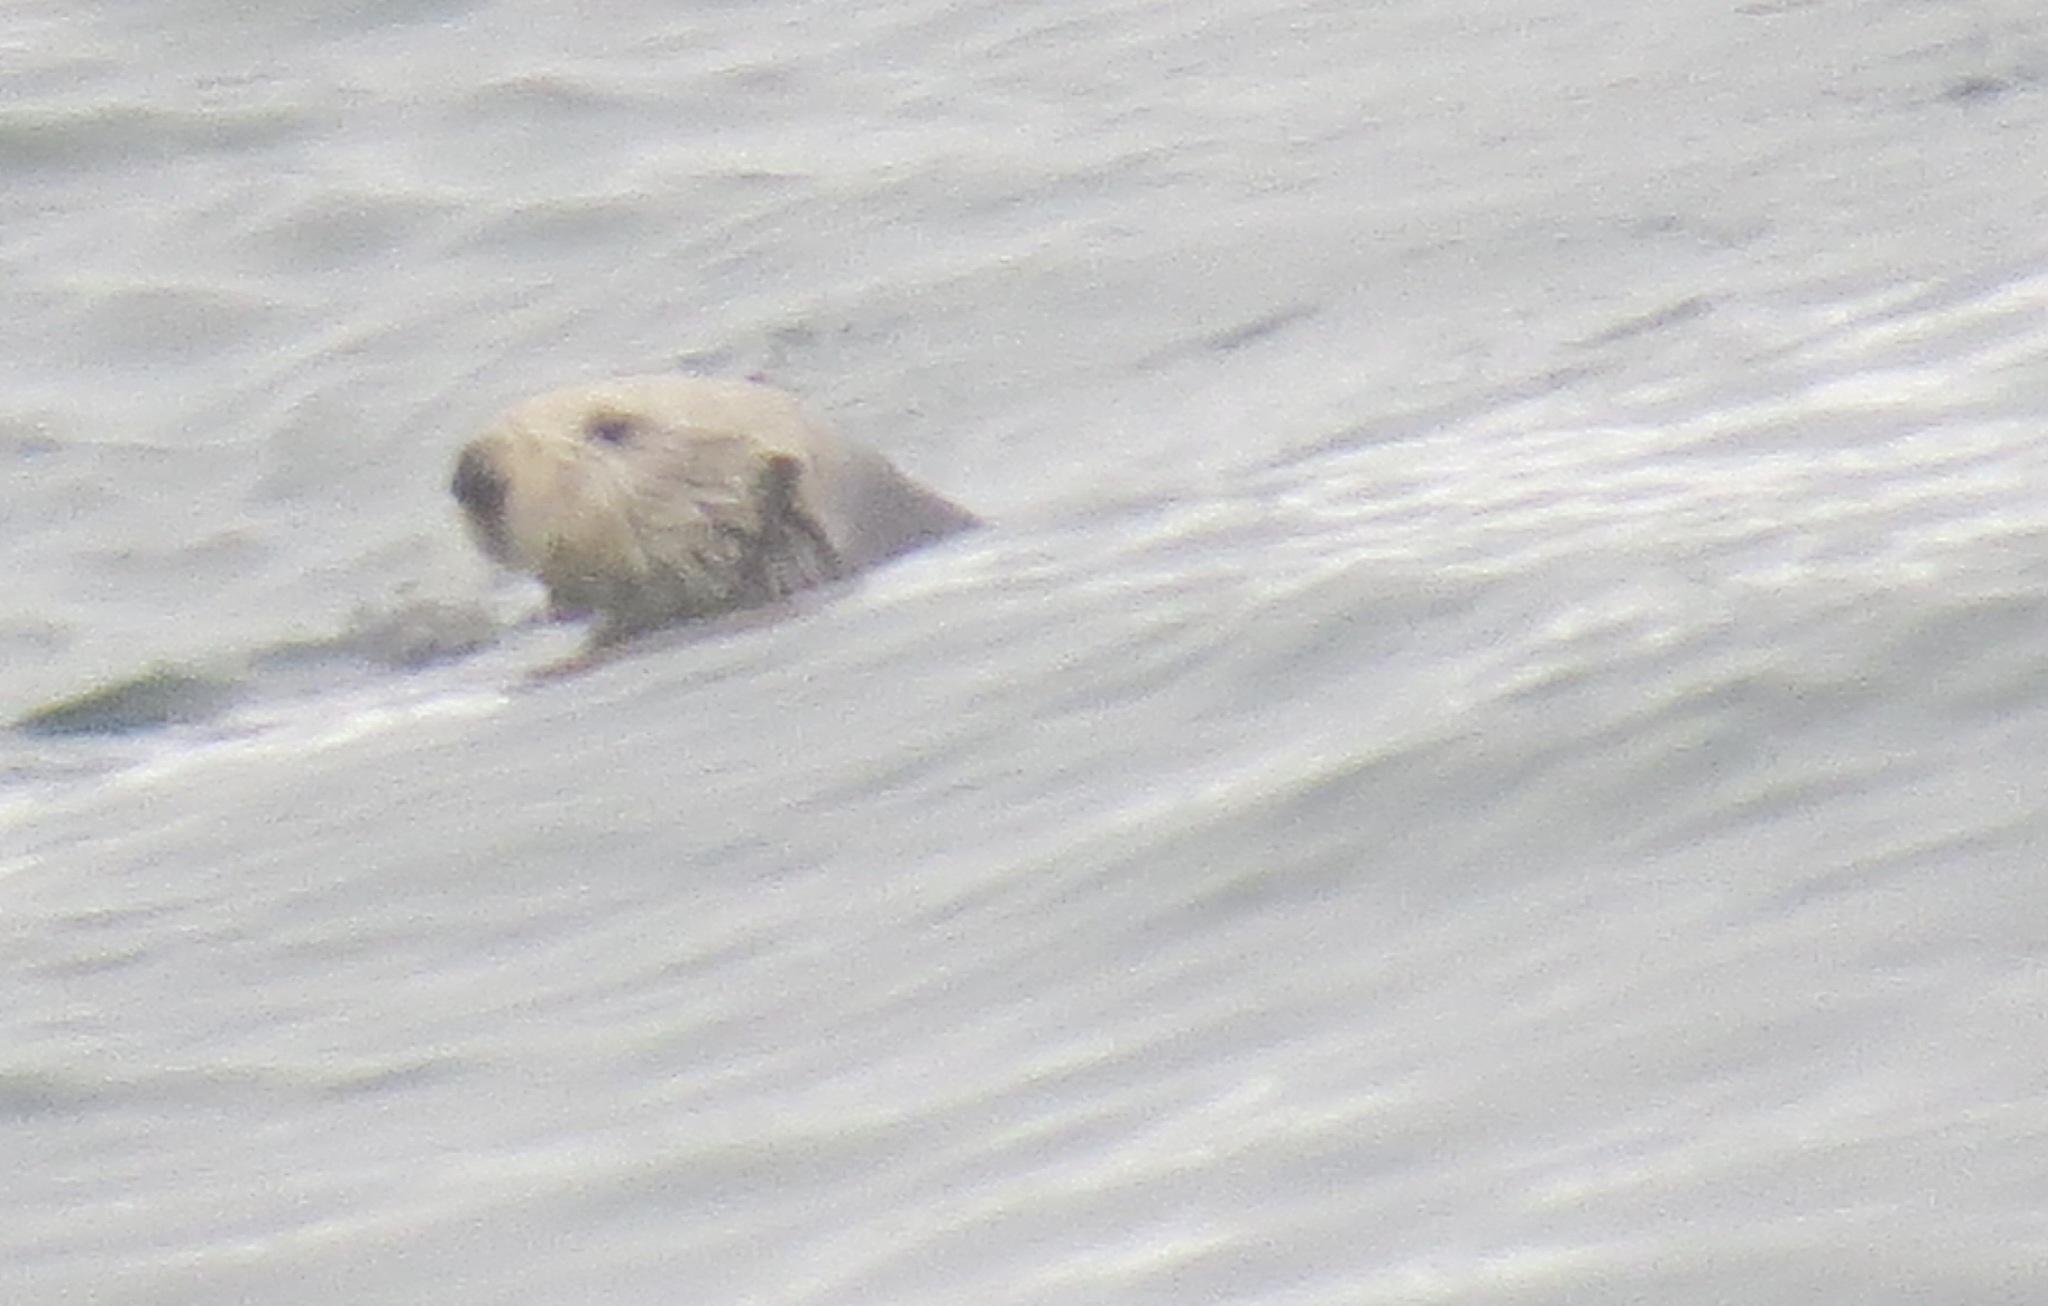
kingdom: Animalia
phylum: Chordata
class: Mammalia
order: Carnivora
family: Mustelidae
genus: Enhydra
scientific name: Enhydra lutris
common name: Sea otter
